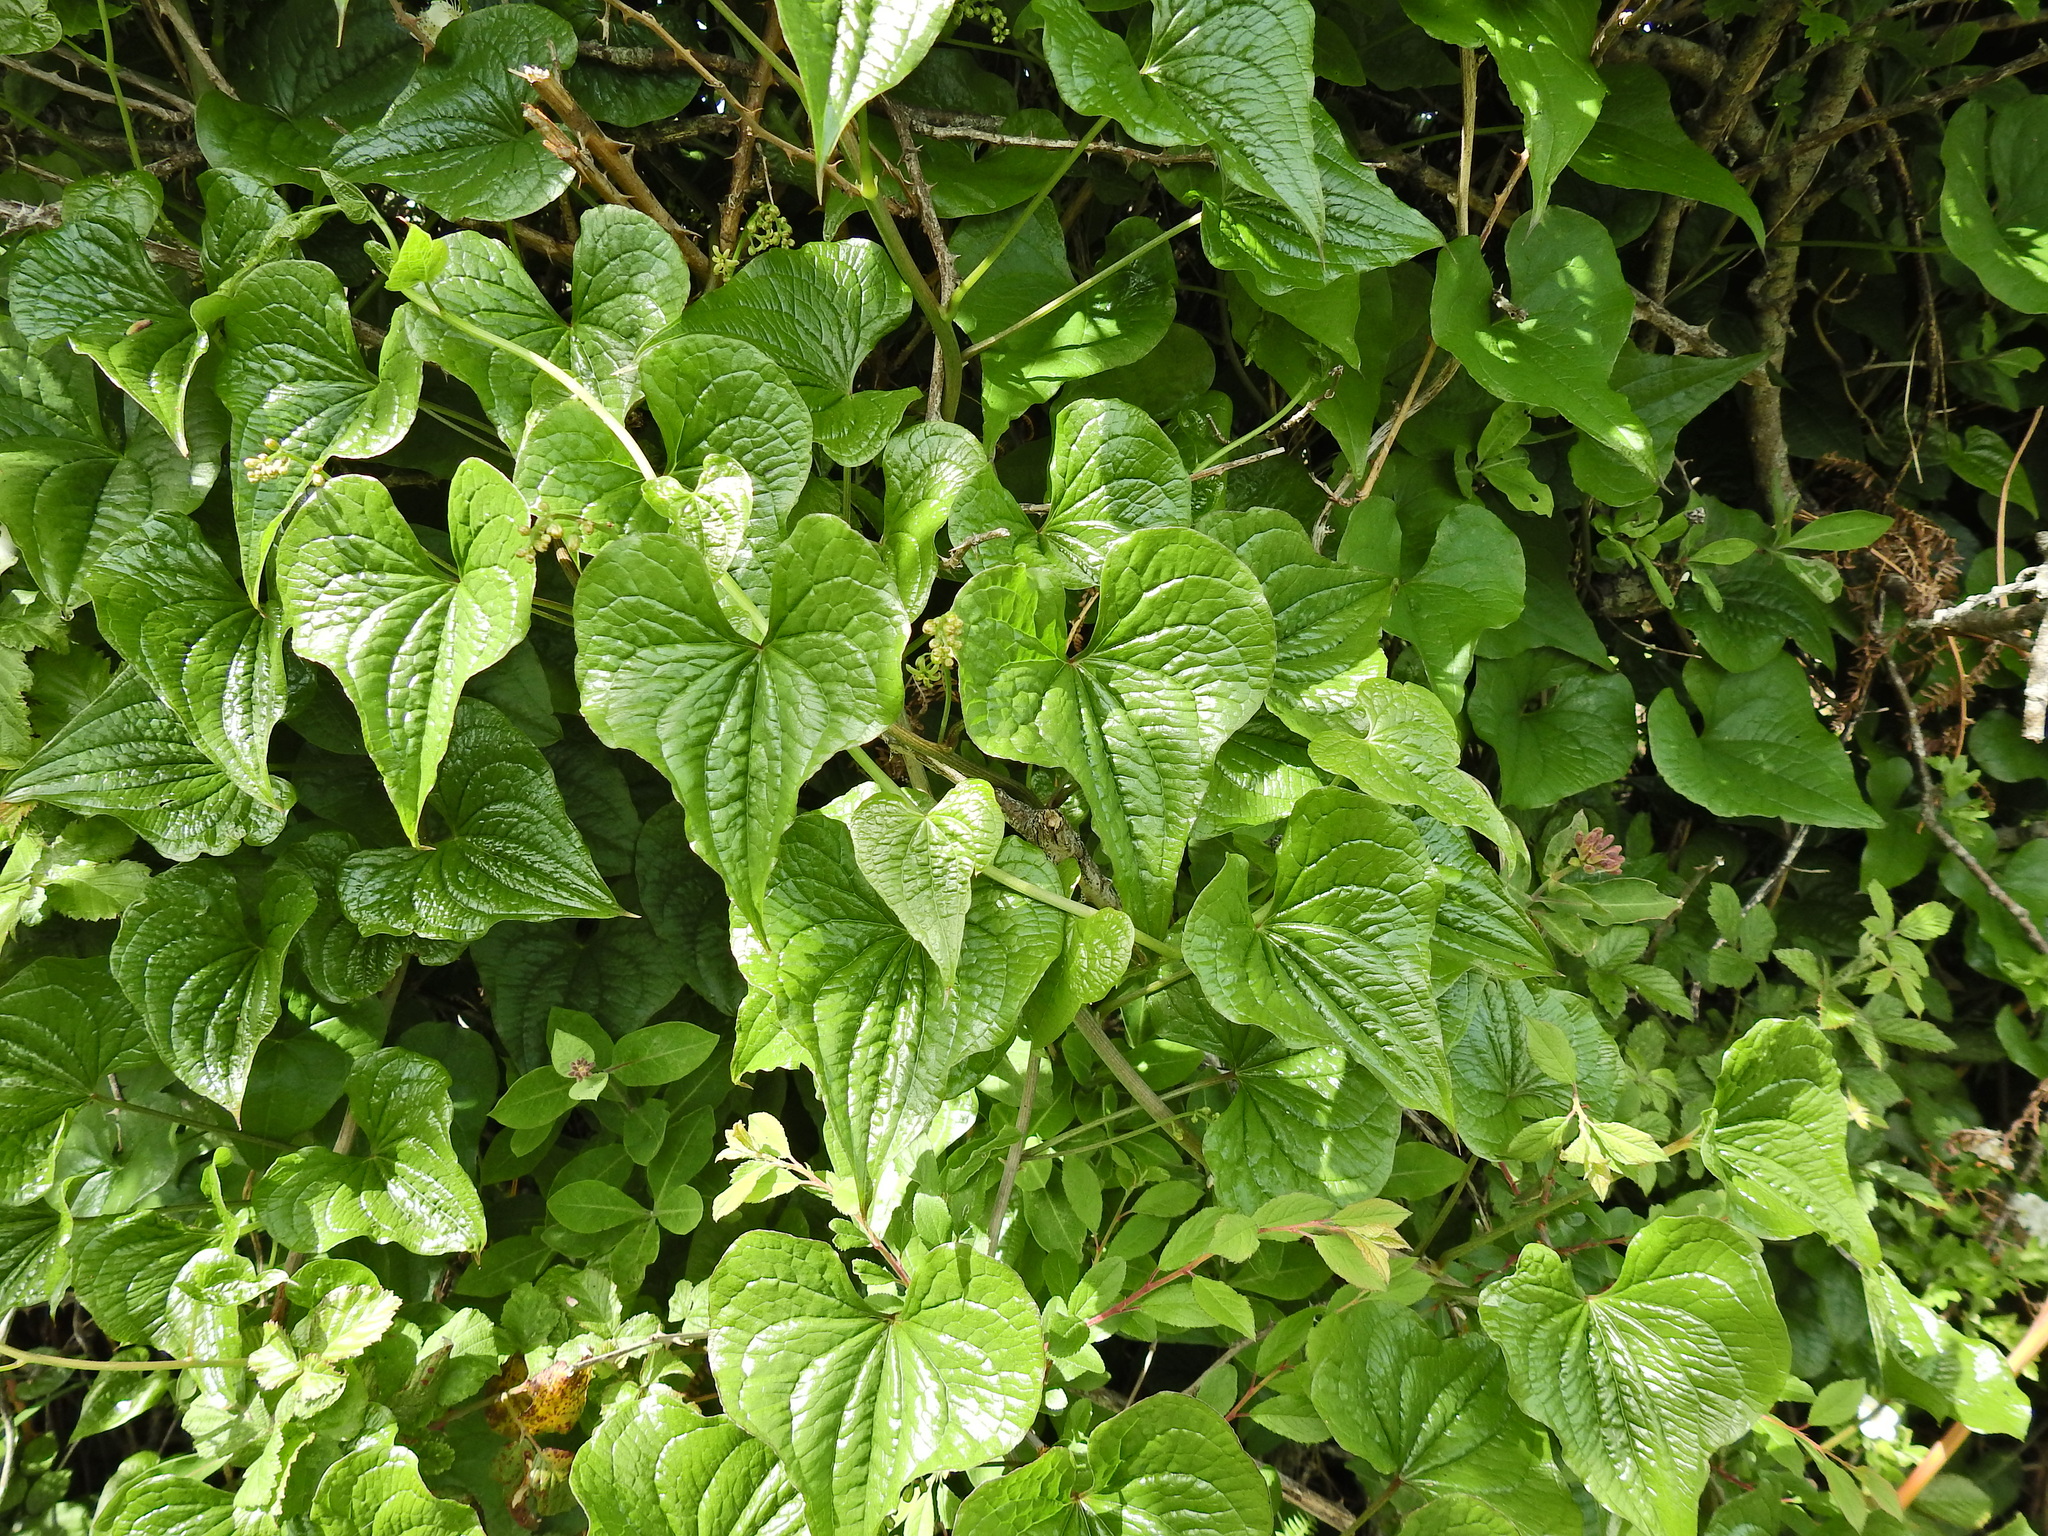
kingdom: Plantae
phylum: Tracheophyta
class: Liliopsida
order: Dioscoreales
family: Dioscoreaceae
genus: Dioscorea
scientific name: Dioscorea communis
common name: Black-bindweed
